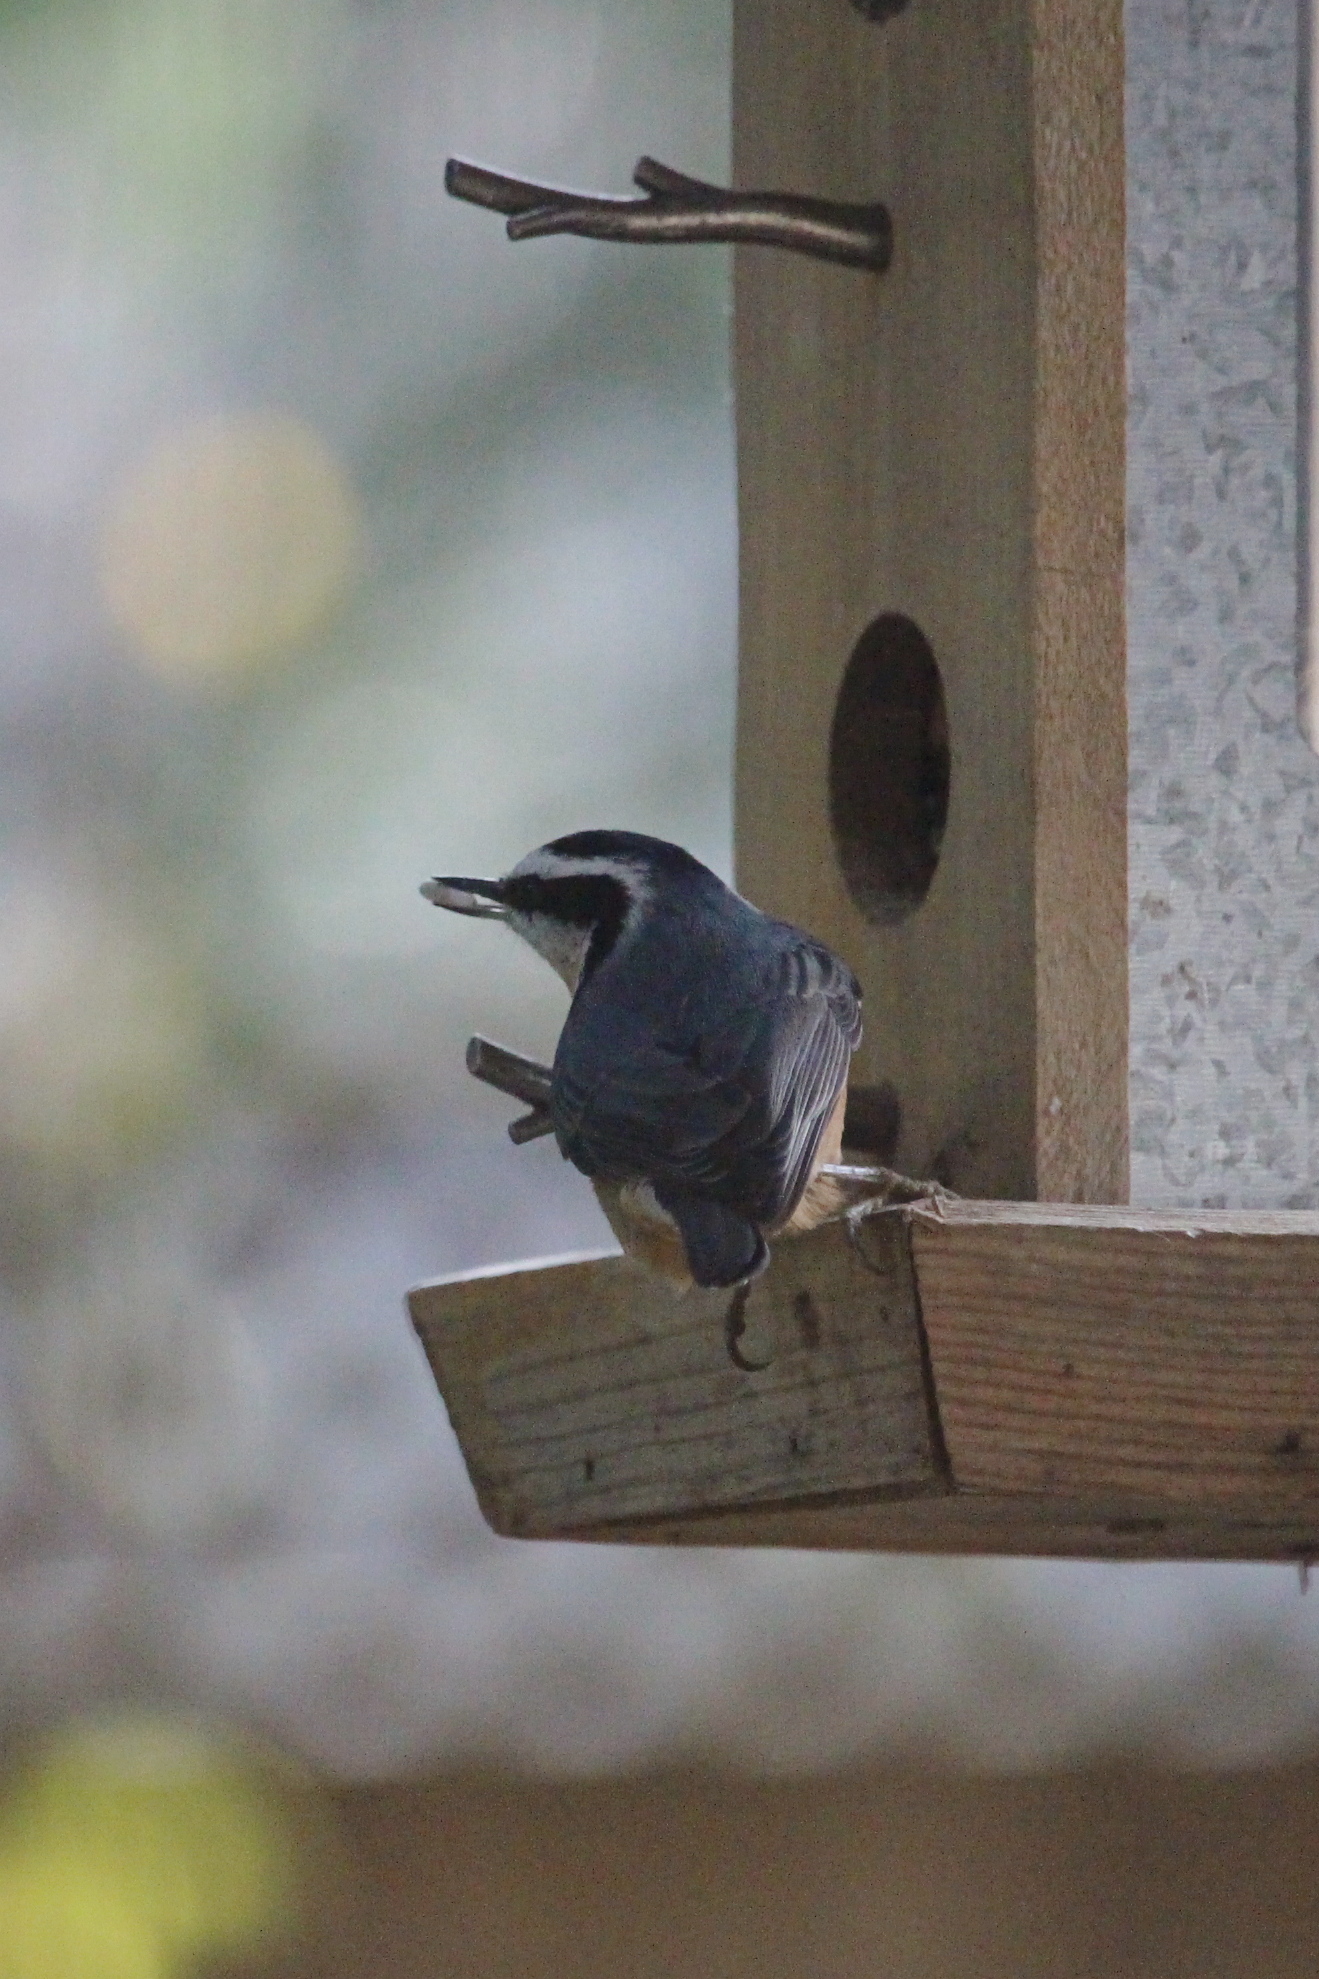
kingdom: Animalia
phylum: Chordata
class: Aves
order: Passeriformes
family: Sittidae
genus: Sitta
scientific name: Sitta canadensis
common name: Red-breasted nuthatch
